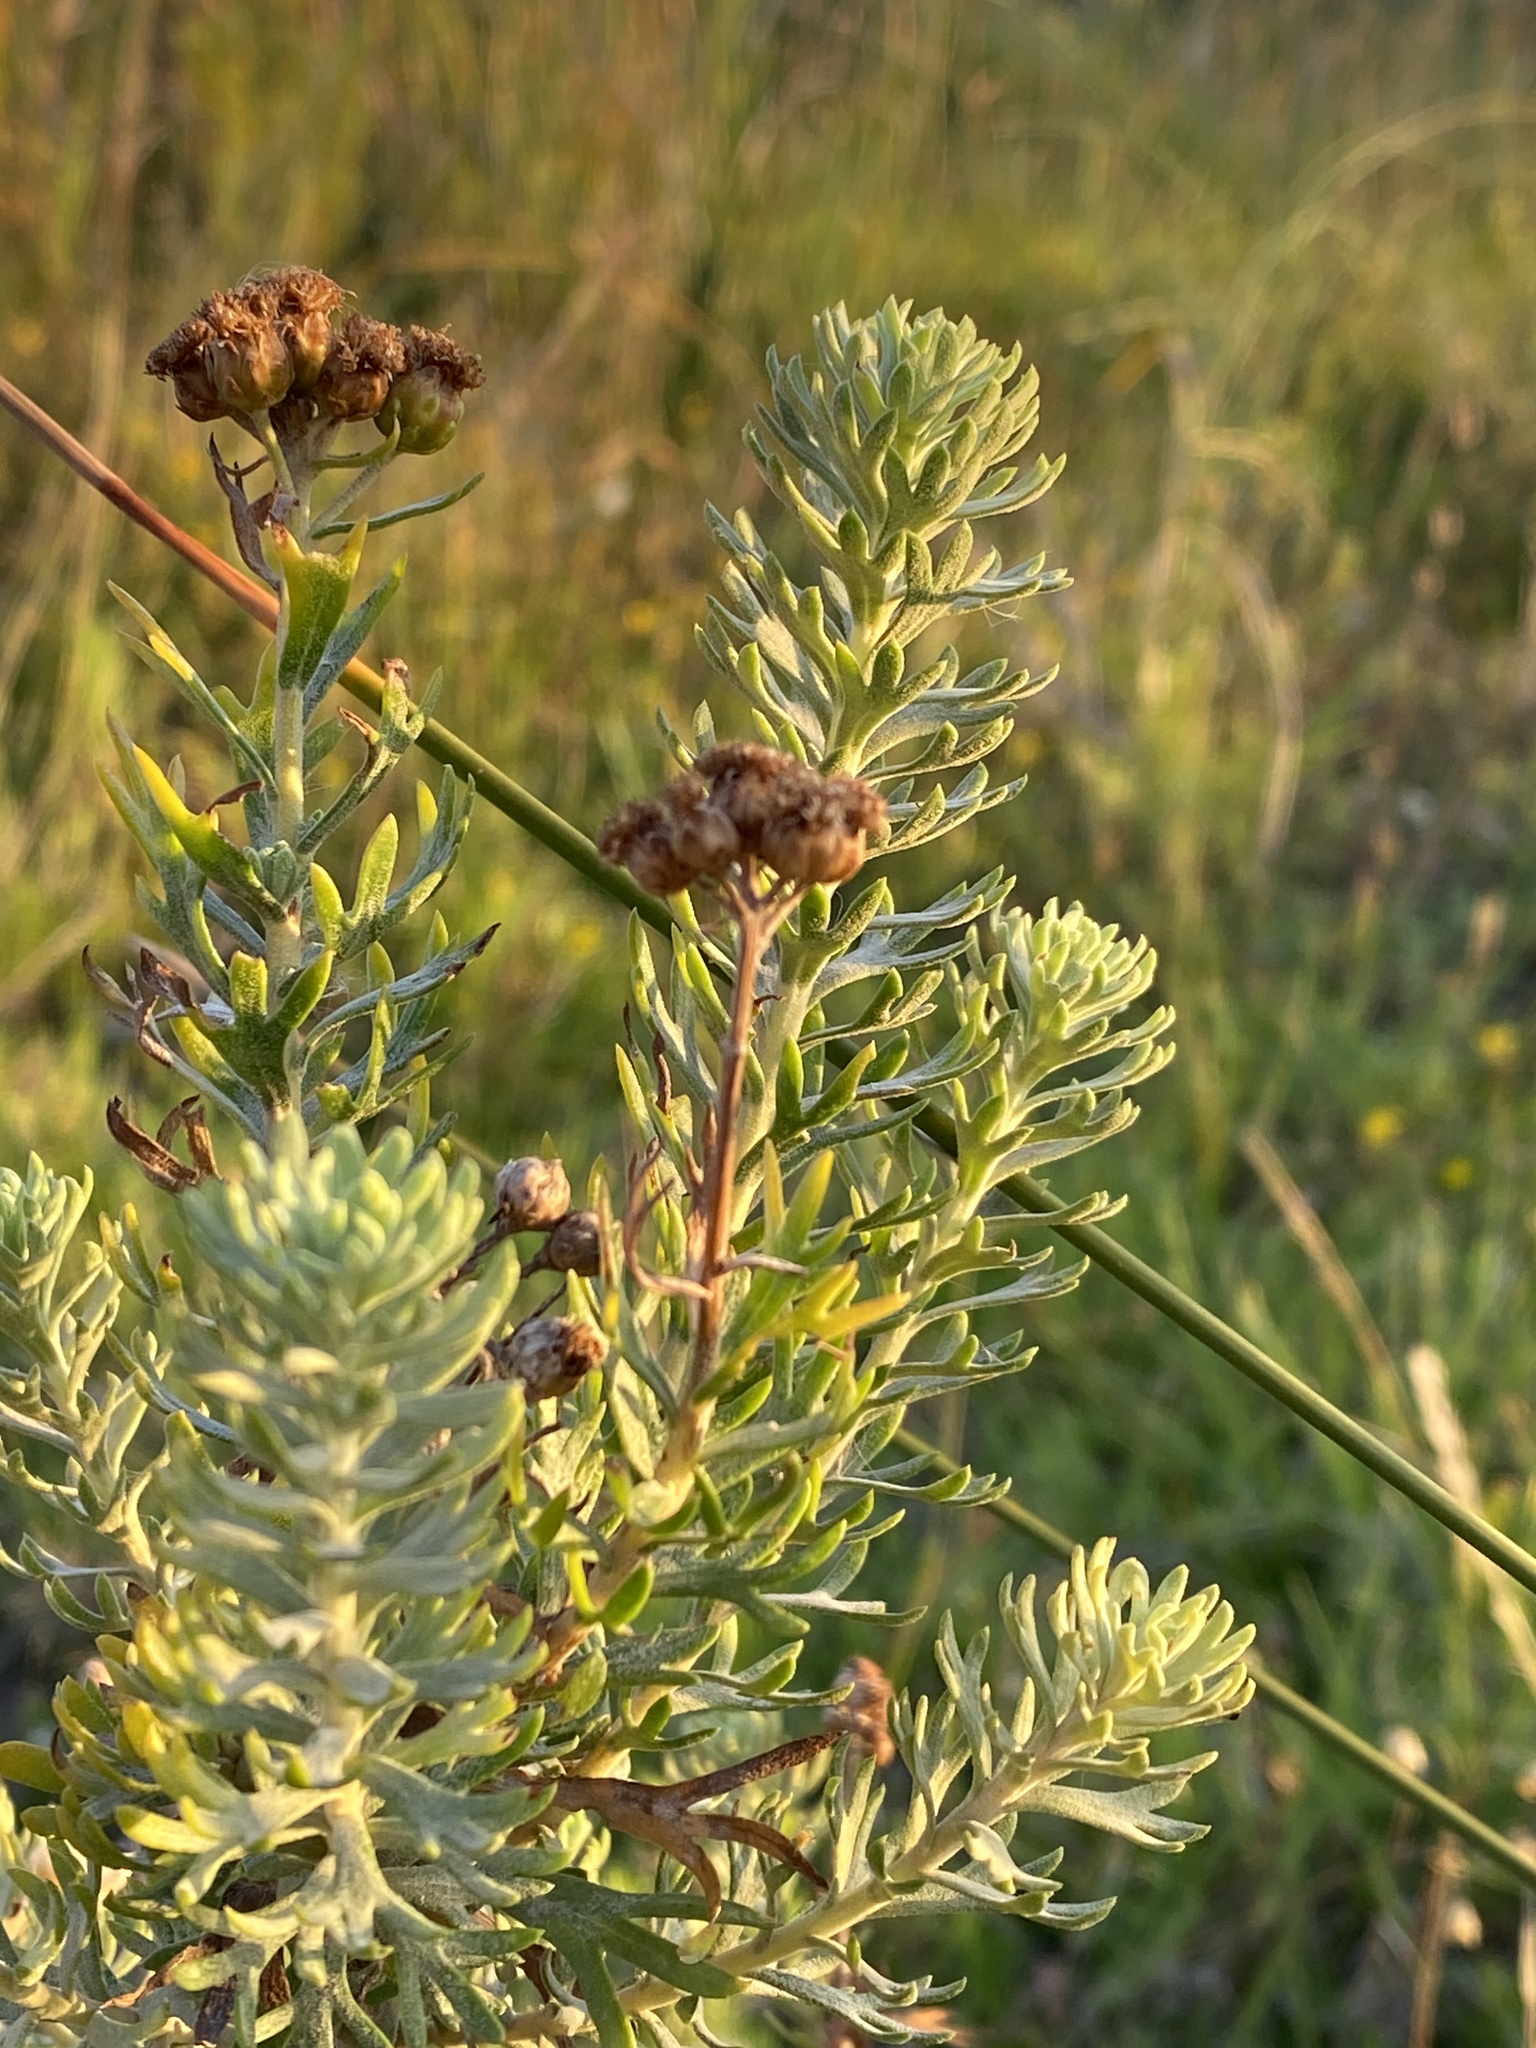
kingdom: Plantae
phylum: Tracheophyta
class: Magnoliopsida
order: Asterales
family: Asteraceae
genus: Athanasia
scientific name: Athanasia trifurcata
